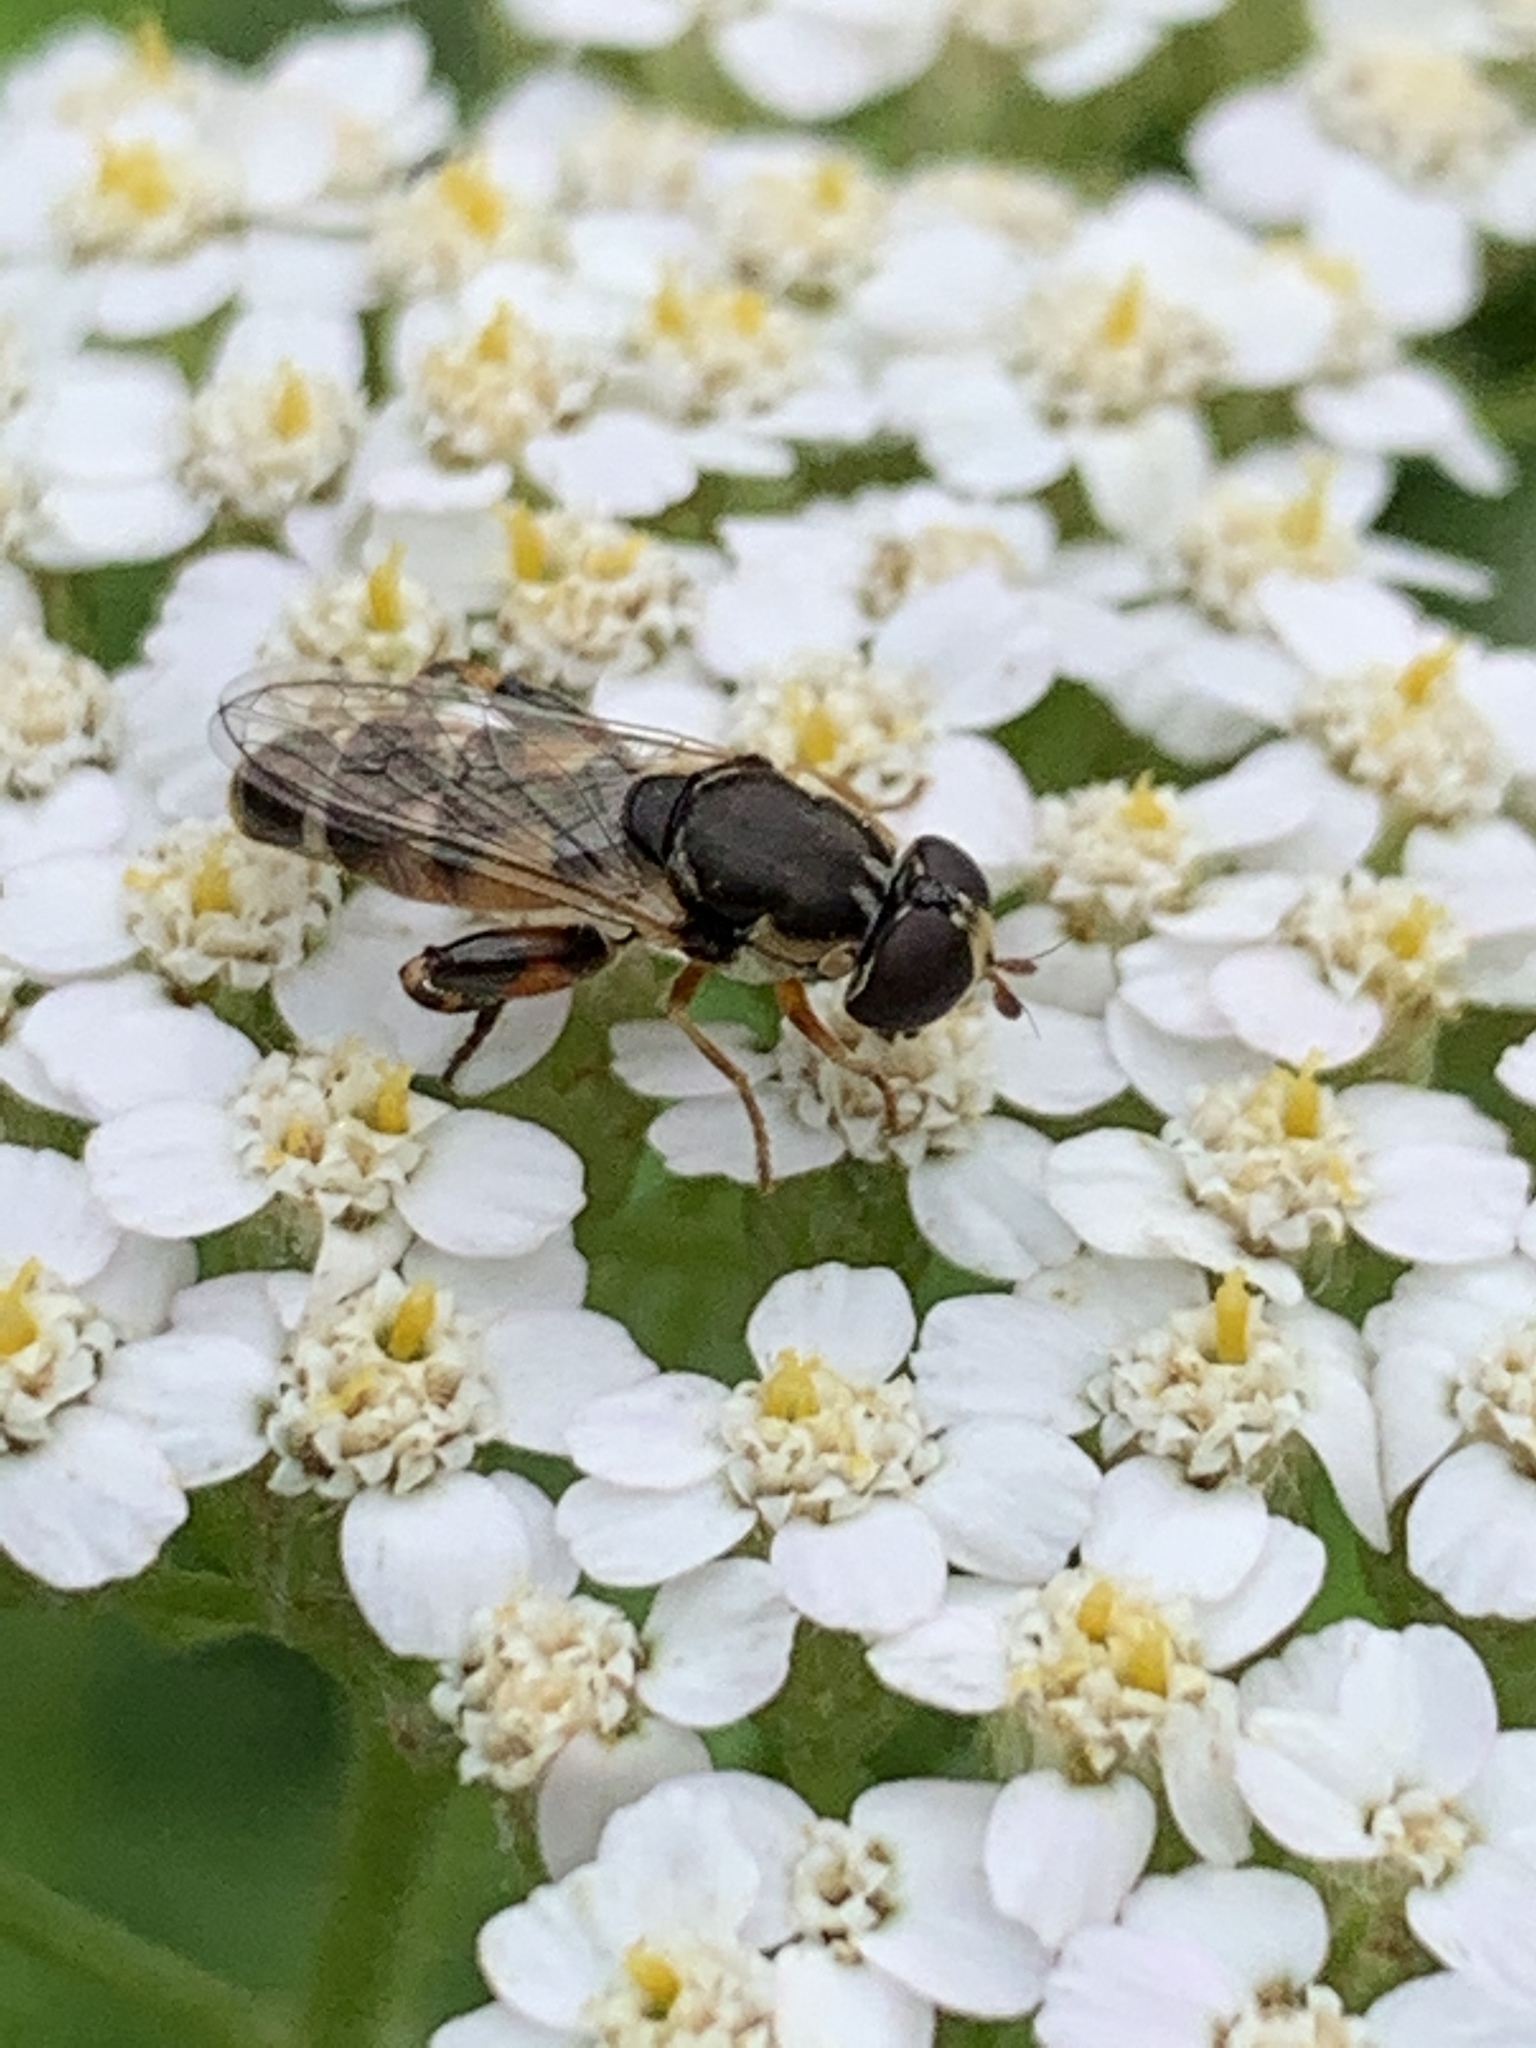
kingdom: Animalia
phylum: Arthropoda
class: Insecta
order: Diptera
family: Syrphidae
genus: Syritta
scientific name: Syritta pipiens
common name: Hover fly
